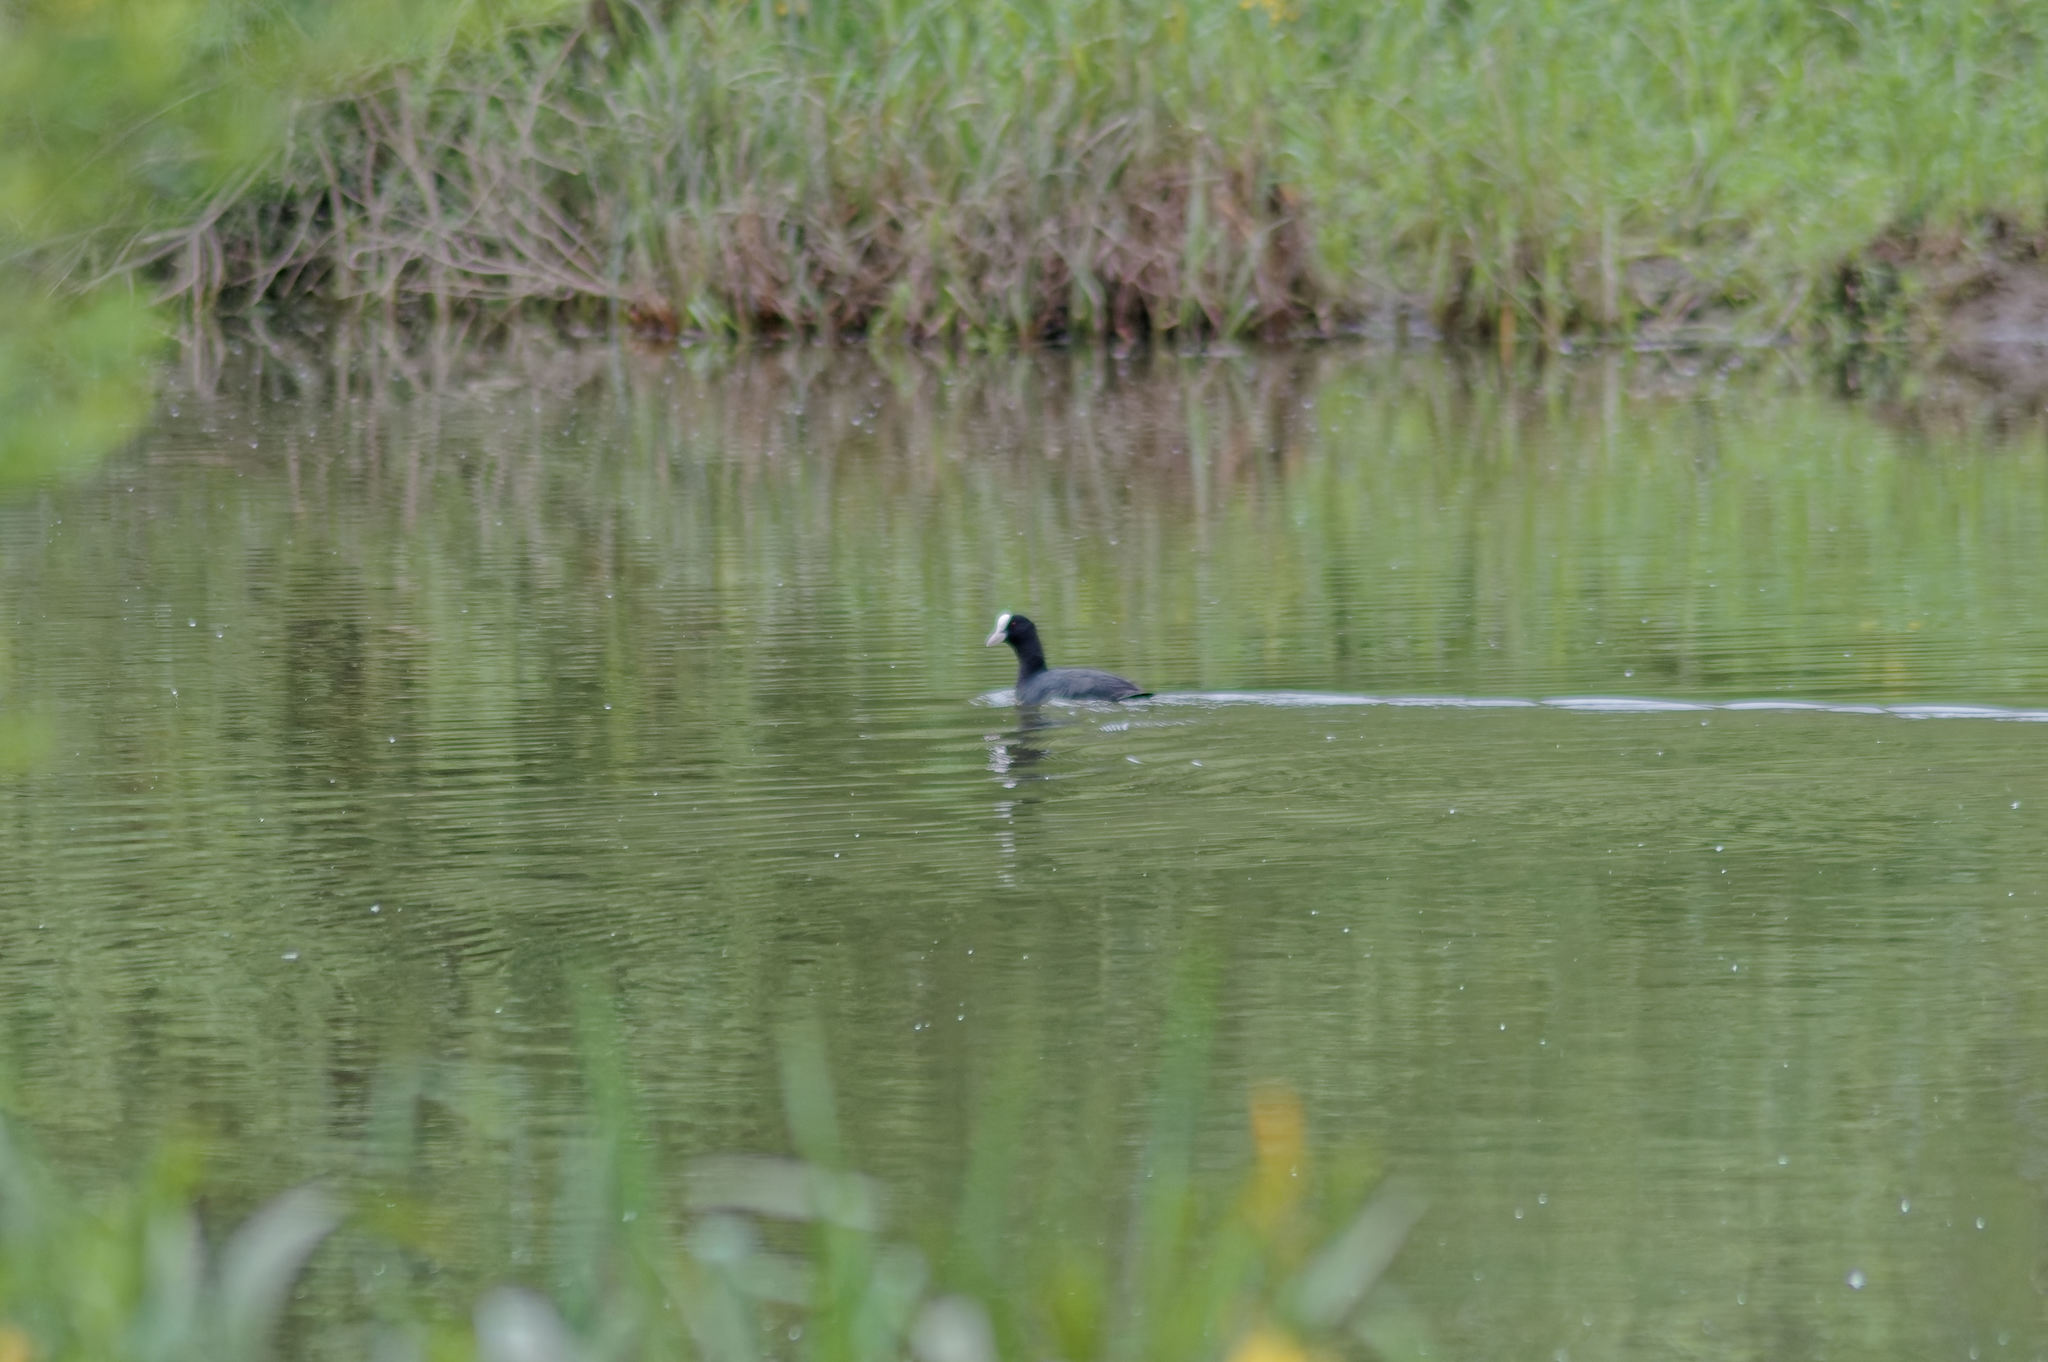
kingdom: Animalia
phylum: Chordata
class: Aves
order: Gruiformes
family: Rallidae
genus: Fulica
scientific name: Fulica atra
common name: Eurasian coot
